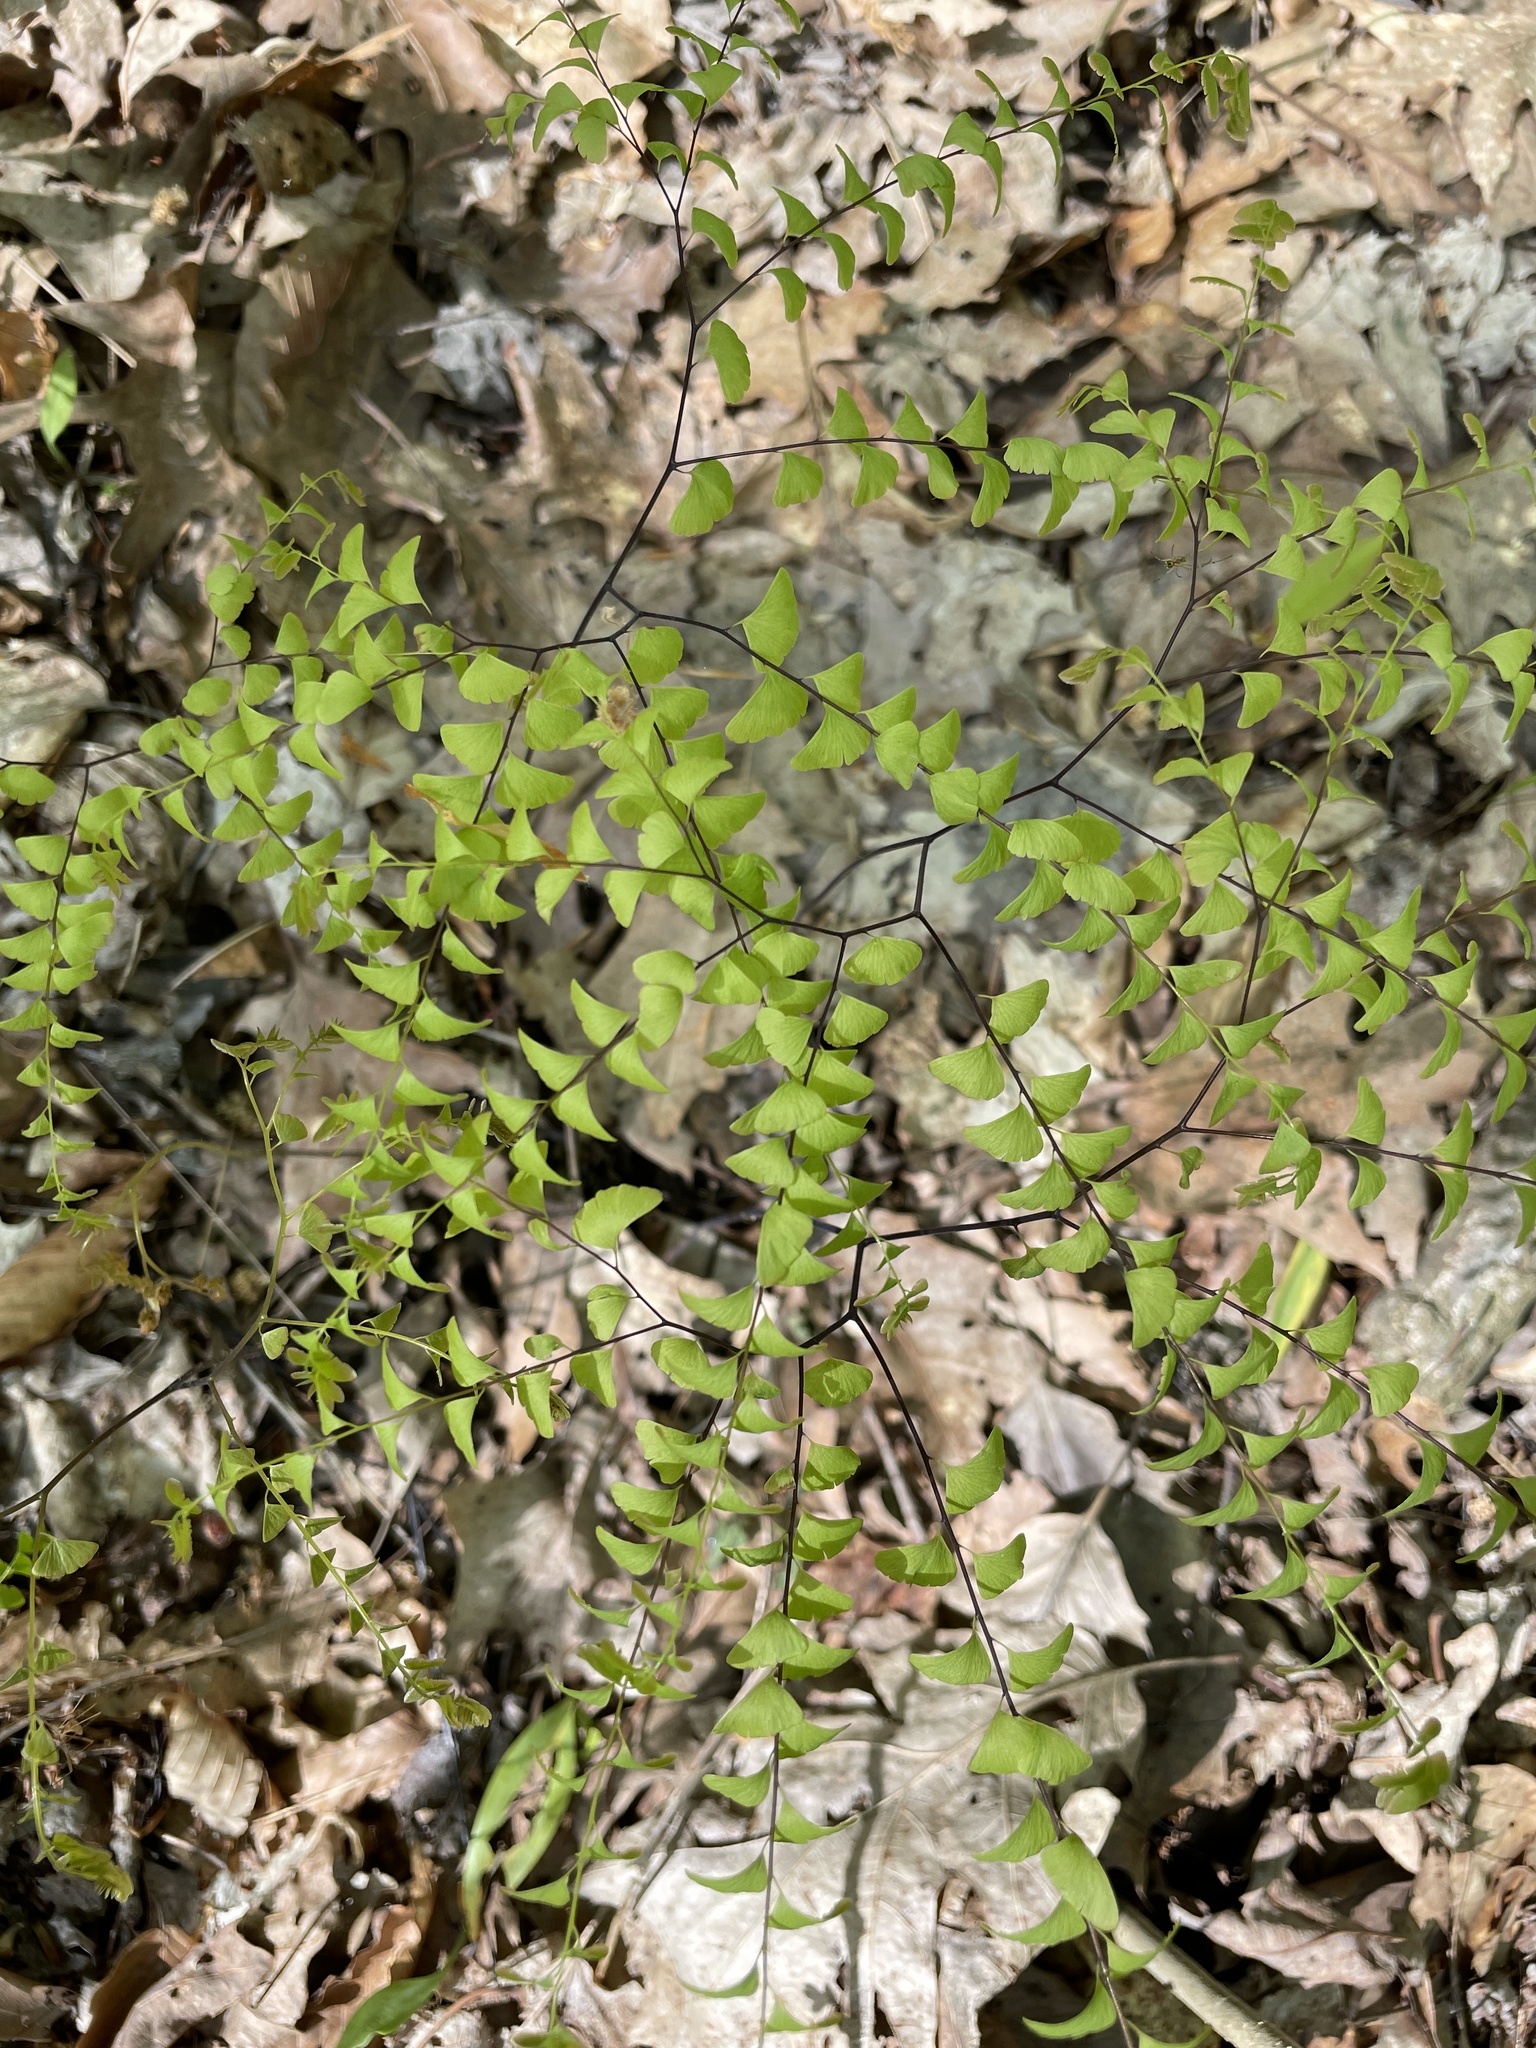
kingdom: Plantae
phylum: Tracheophyta
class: Polypodiopsida
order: Polypodiales
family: Pteridaceae
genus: Adiantum
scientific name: Adiantum pedatum
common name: Five-finger fern
